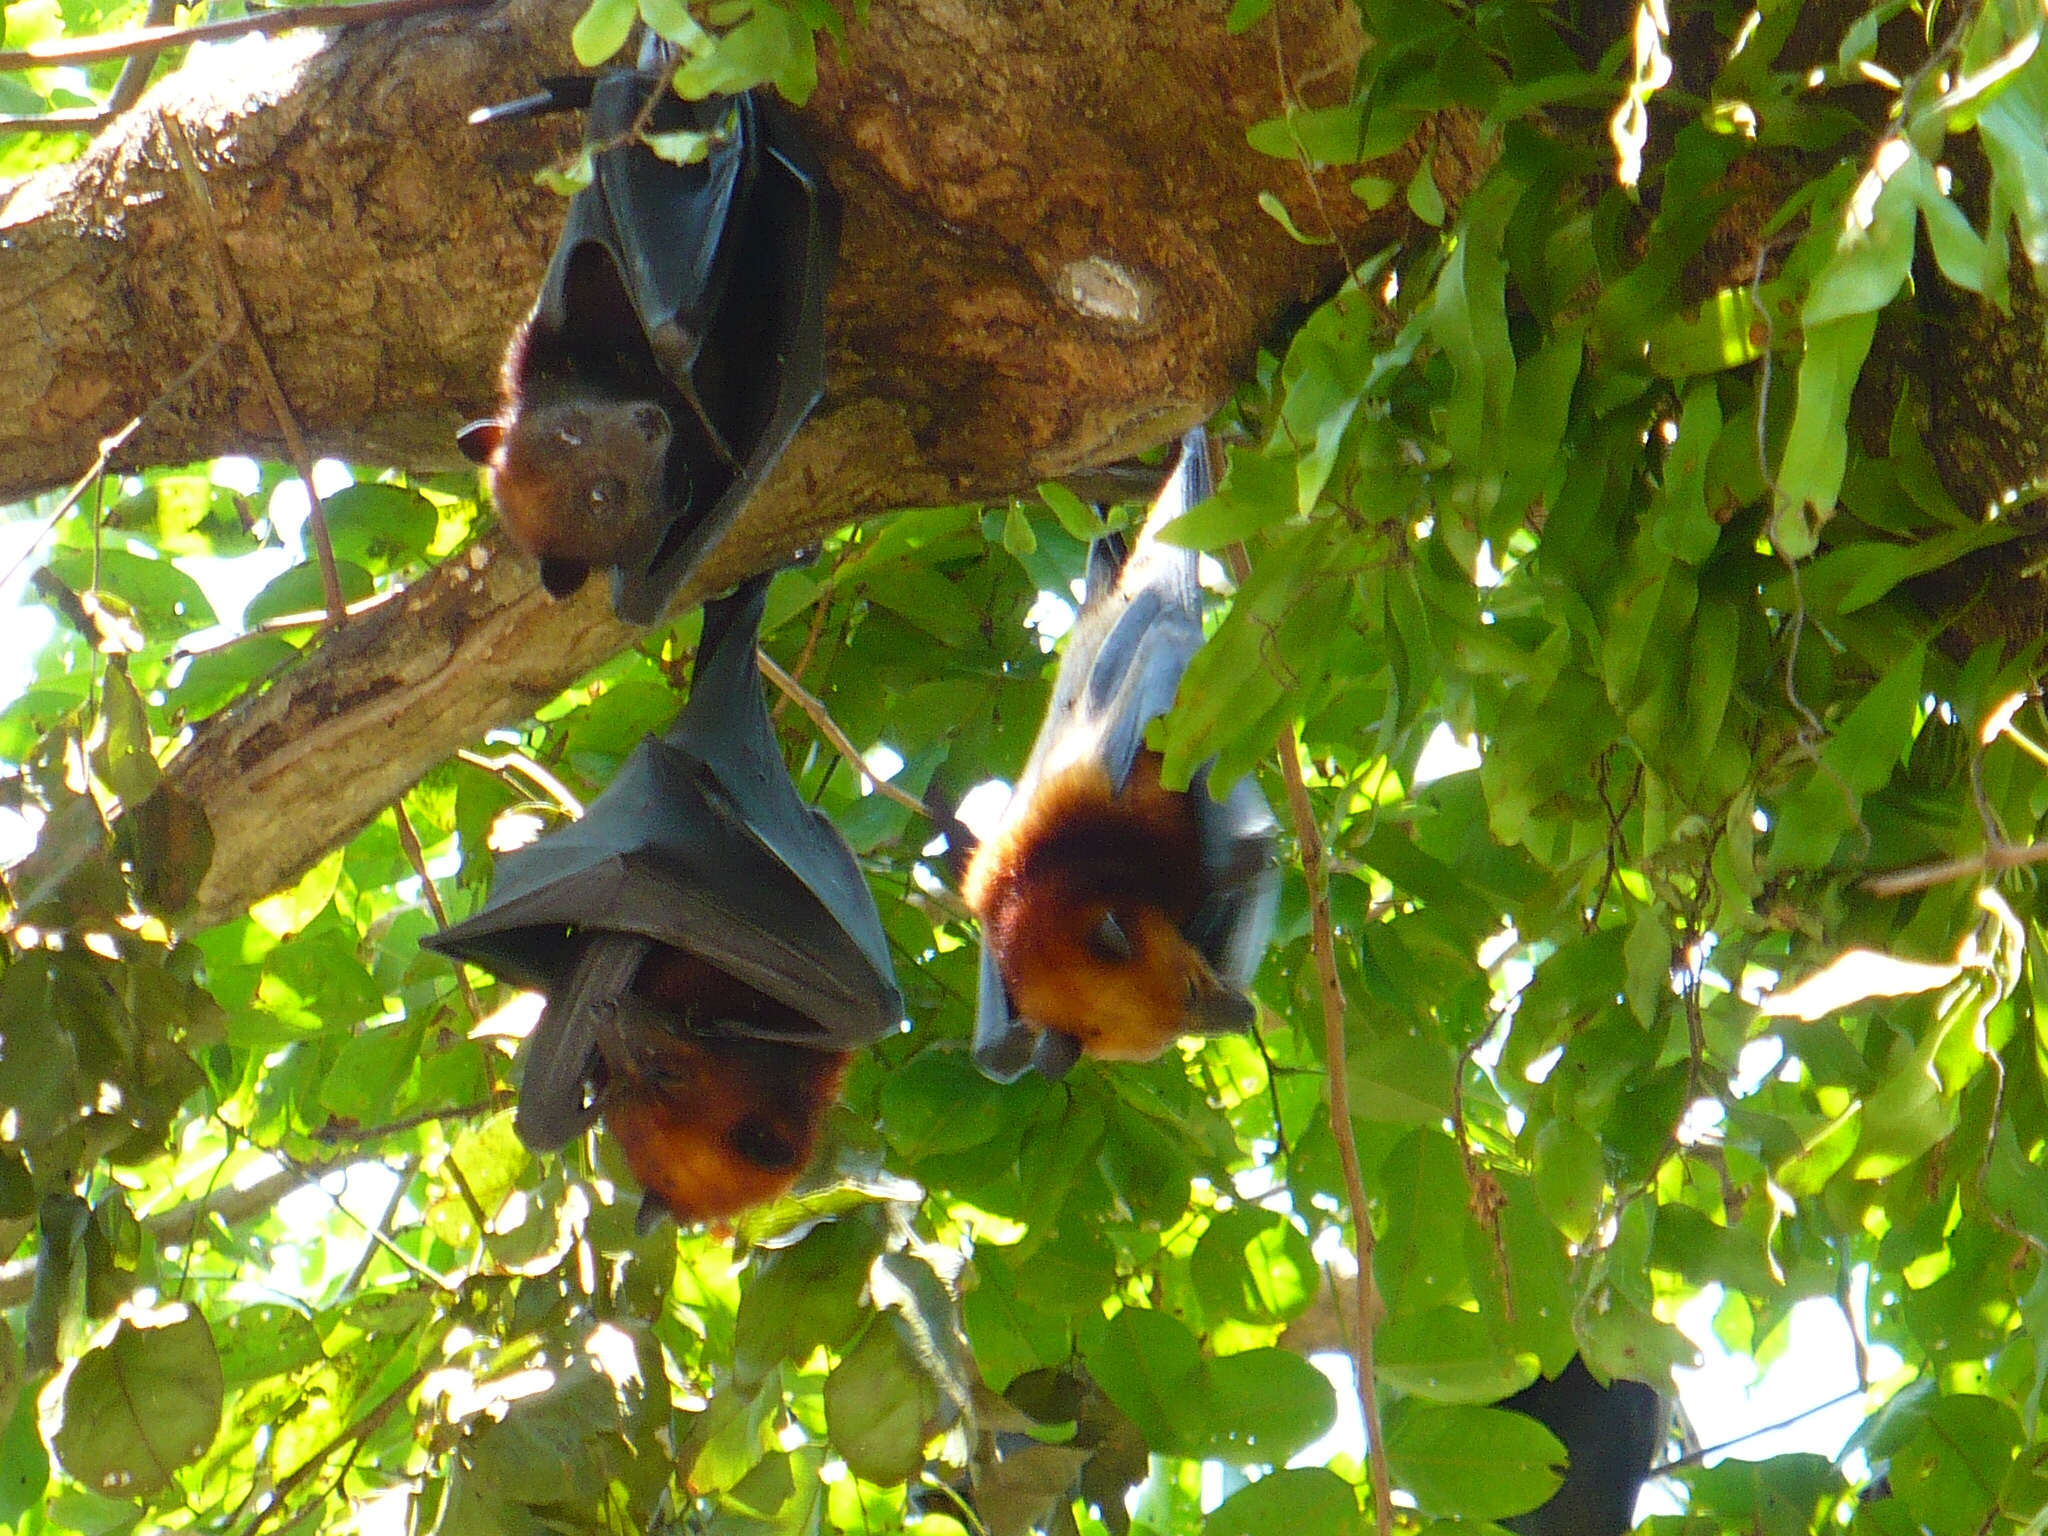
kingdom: Animalia
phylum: Chordata
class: Mammalia
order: Chiroptera
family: Pteropodidae
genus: Pteropus
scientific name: Pteropus hypomelanus
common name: Variable flying fox
